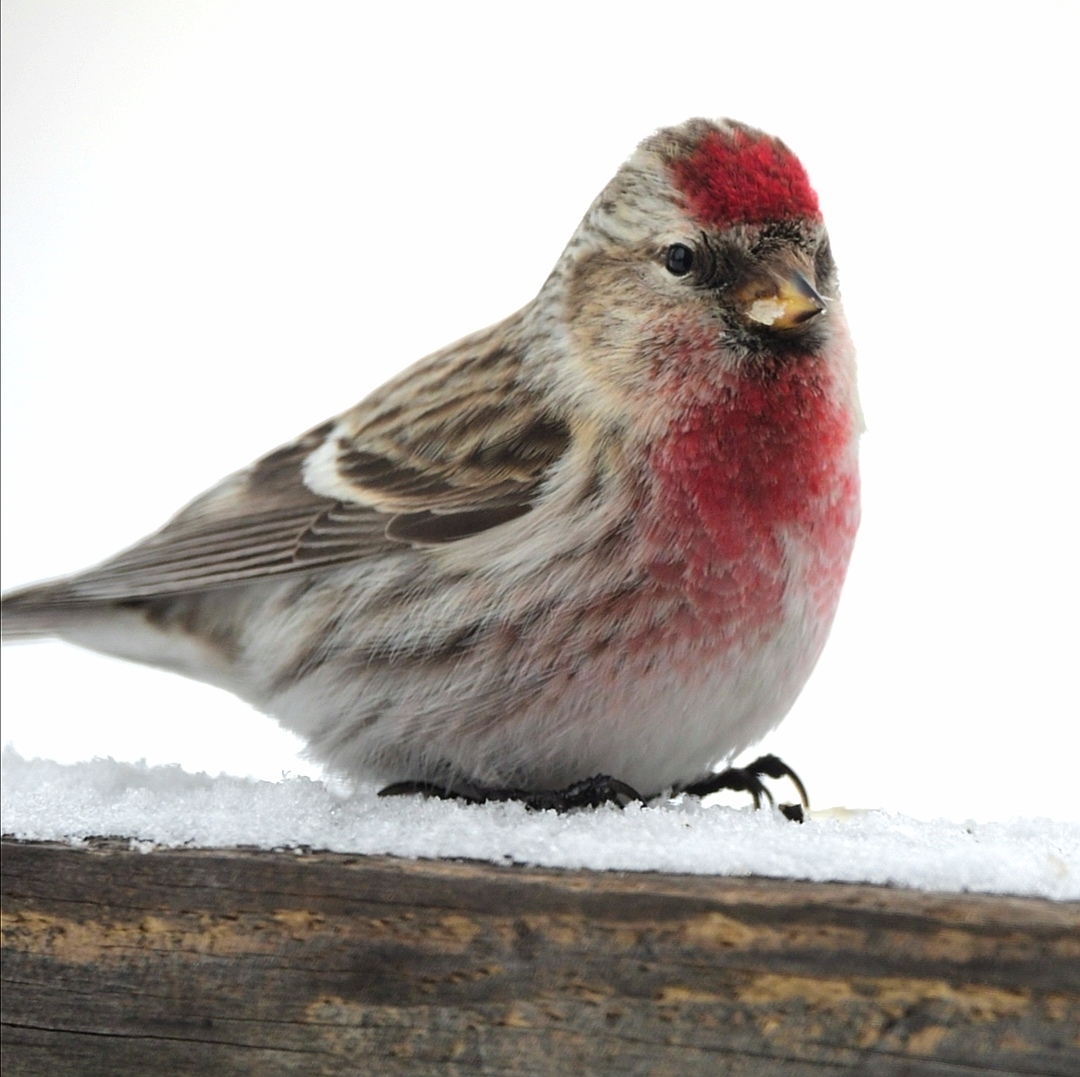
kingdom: Animalia
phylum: Chordata
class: Aves
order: Passeriformes
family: Fringillidae
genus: Acanthis
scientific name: Acanthis flammea
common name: Common redpoll
